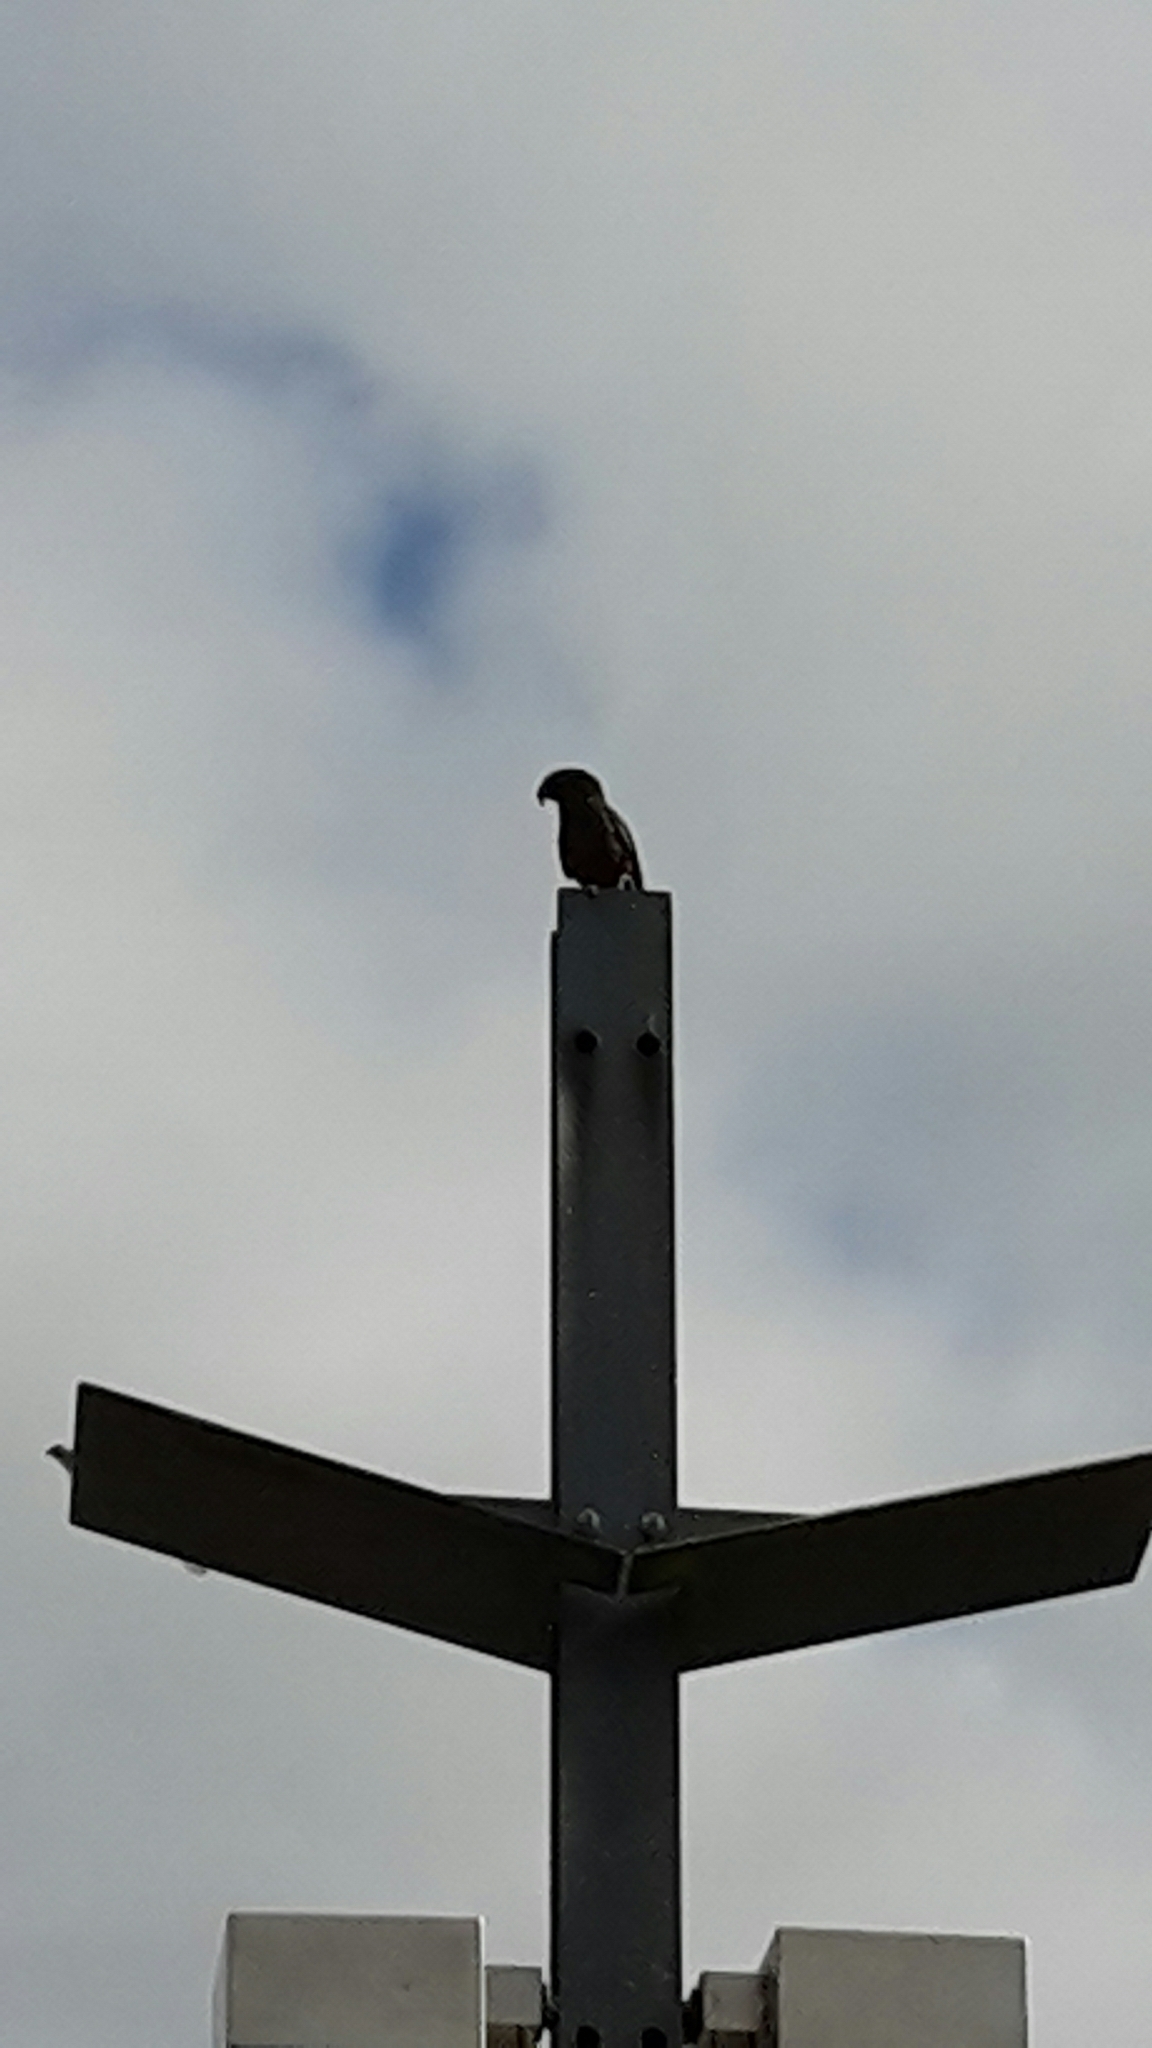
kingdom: Animalia
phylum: Chordata
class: Aves
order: Psittaciformes
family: Psittacidae
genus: Nestor
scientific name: Nestor meridionalis
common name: New zealand kaka
